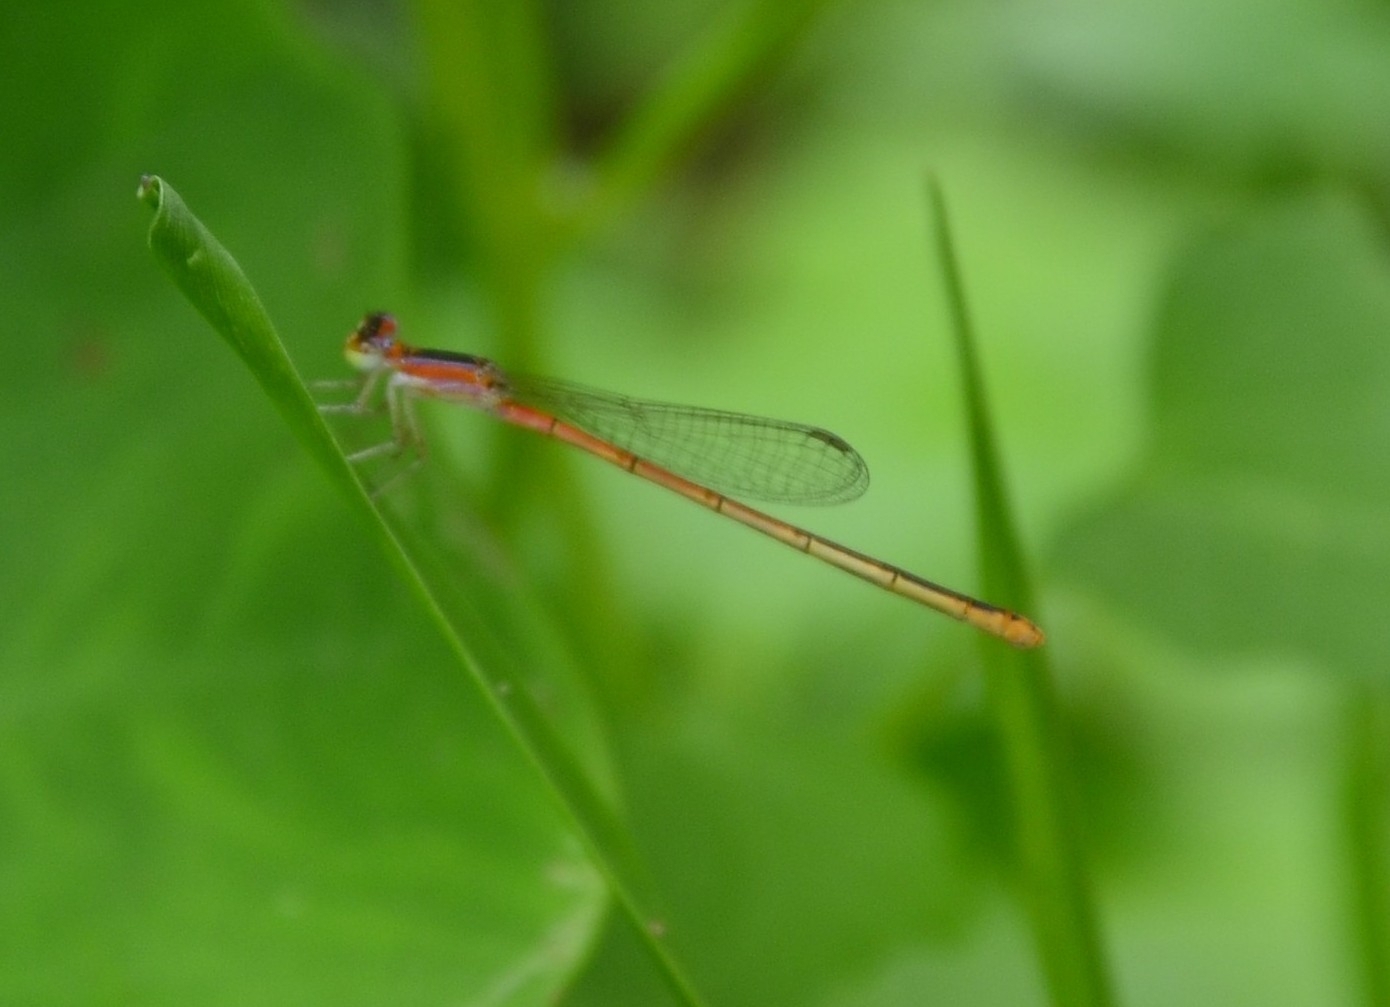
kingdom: Animalia
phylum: Arthropoda
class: Insecta
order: Odonata
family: Coenagrionidae
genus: Agriocnemis
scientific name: Agriocnemis pygmaea
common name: Pygmy wisp
